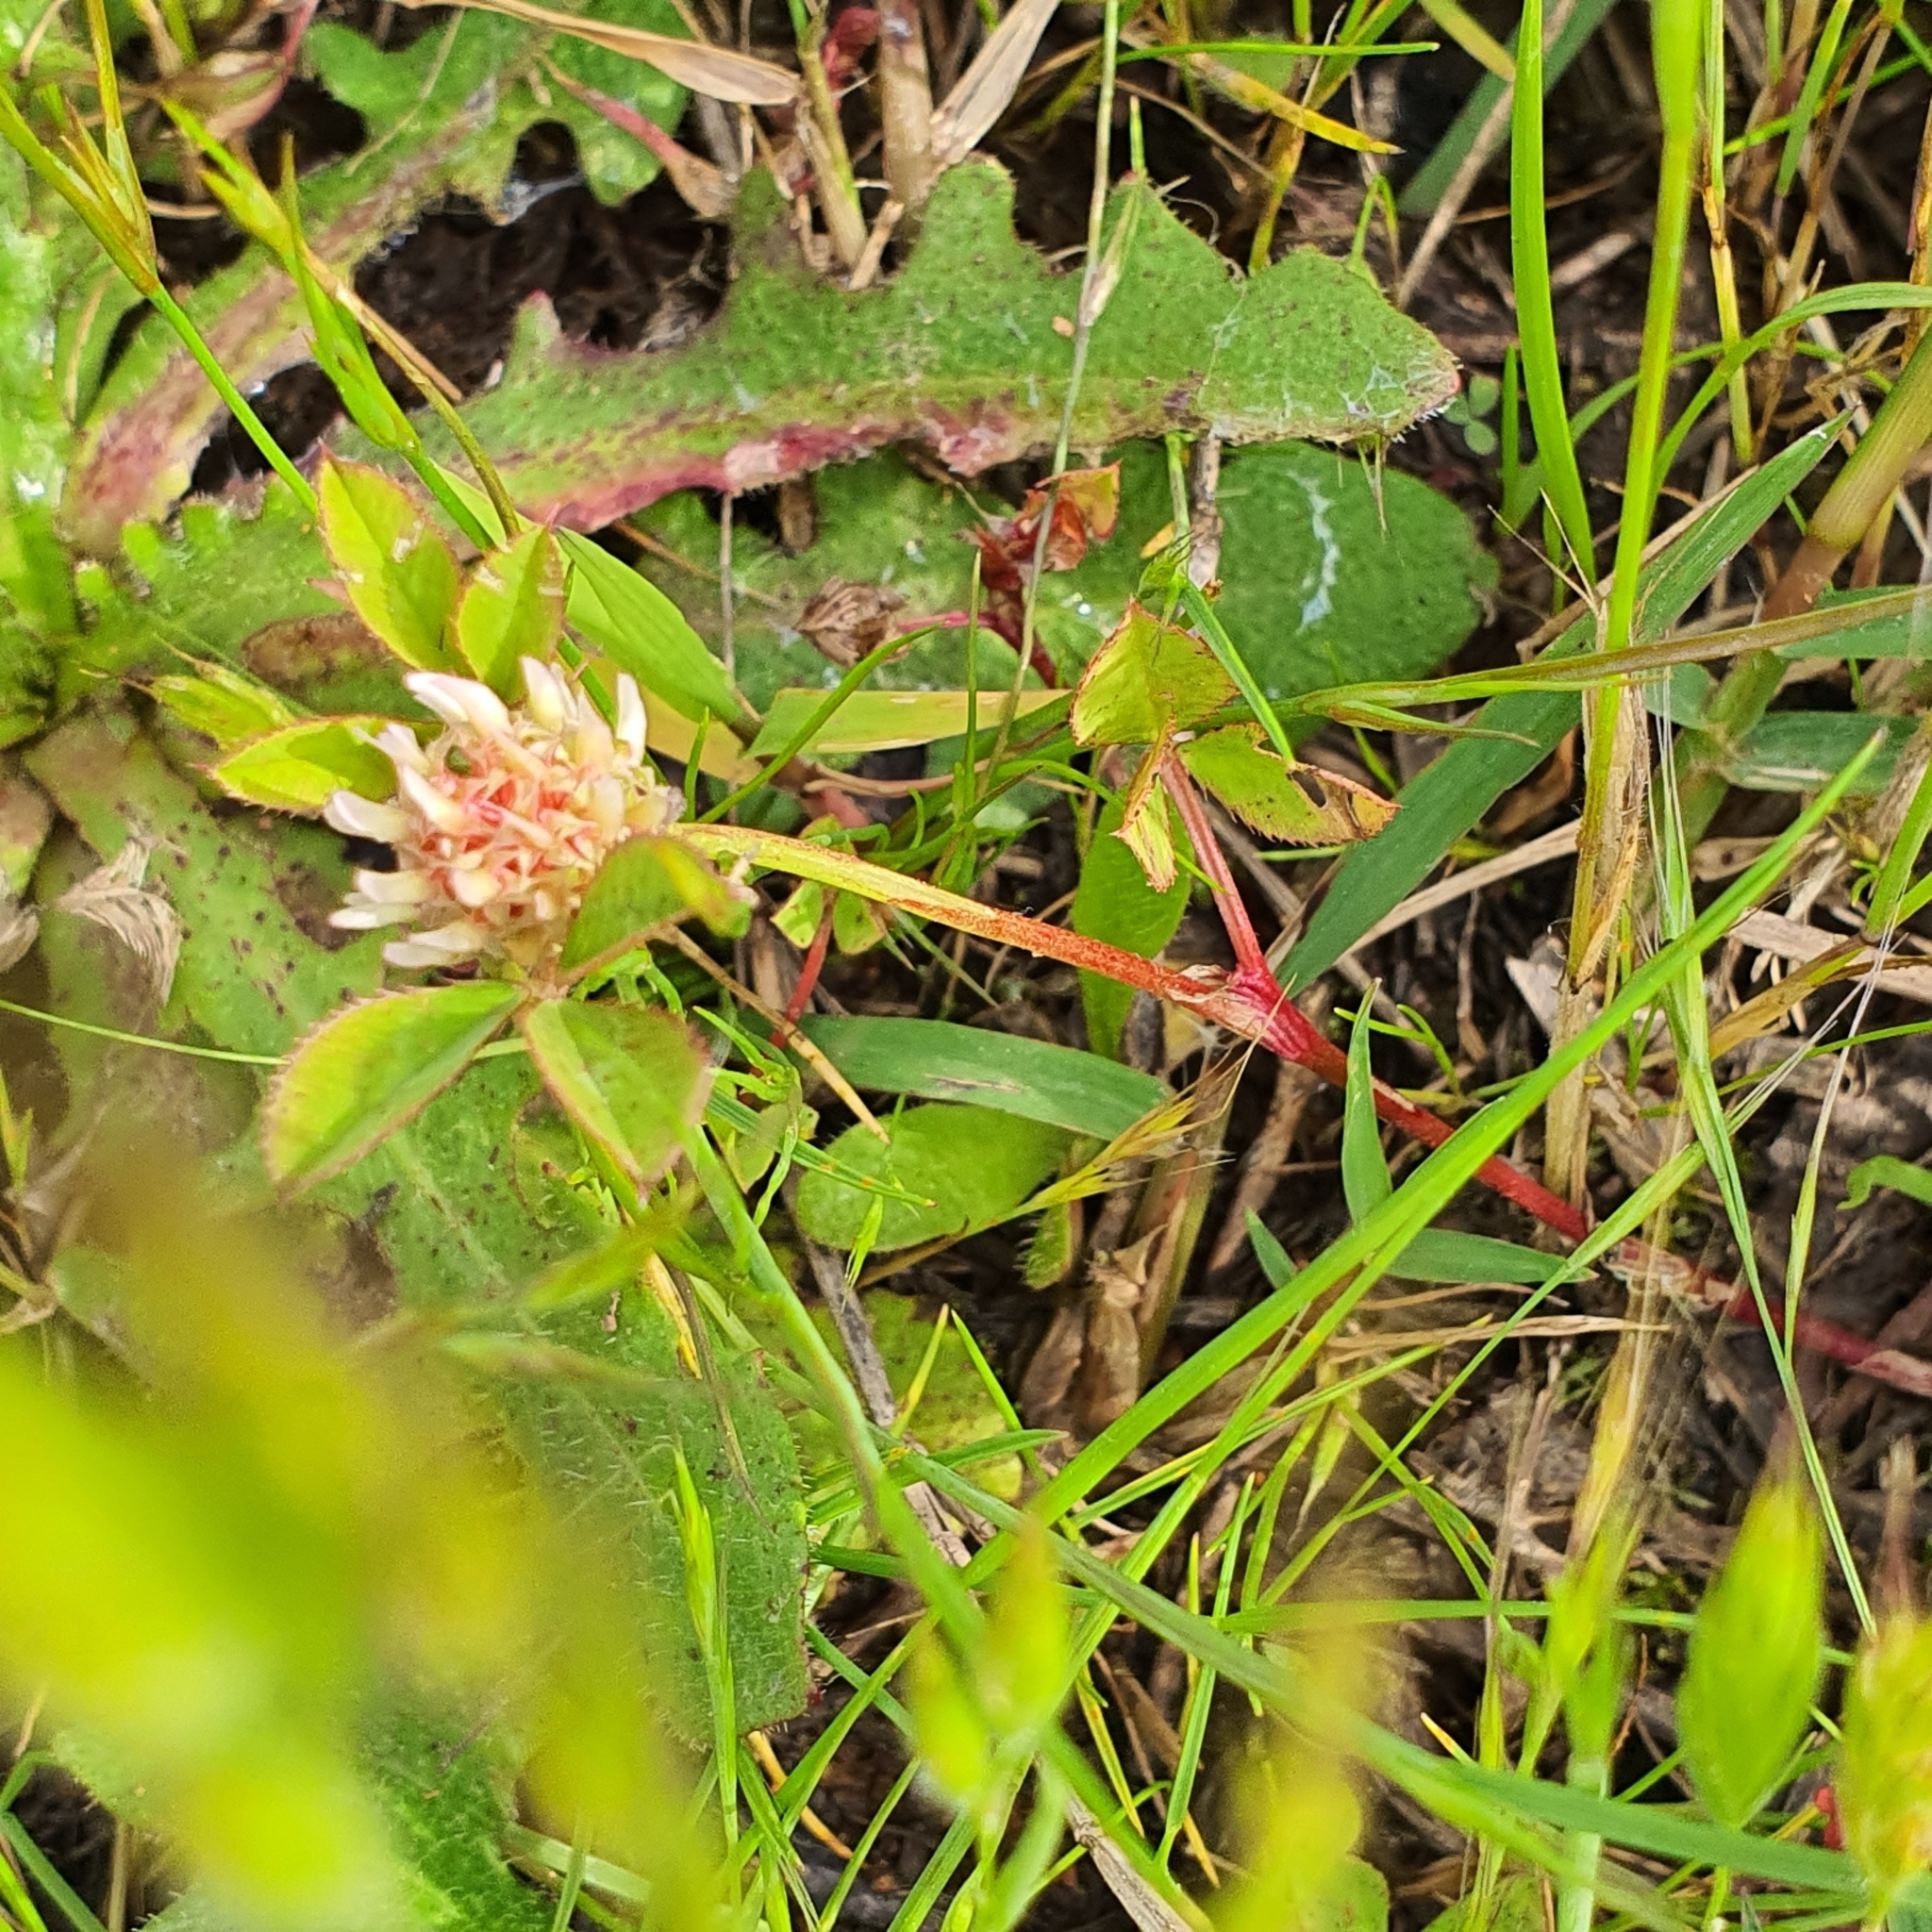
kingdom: Plantae
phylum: Tracheophyta
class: Magnoliopsida
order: Fabales
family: Fabaceae
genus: Trifolium
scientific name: Trifolium glomeratum
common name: Clustered clover
